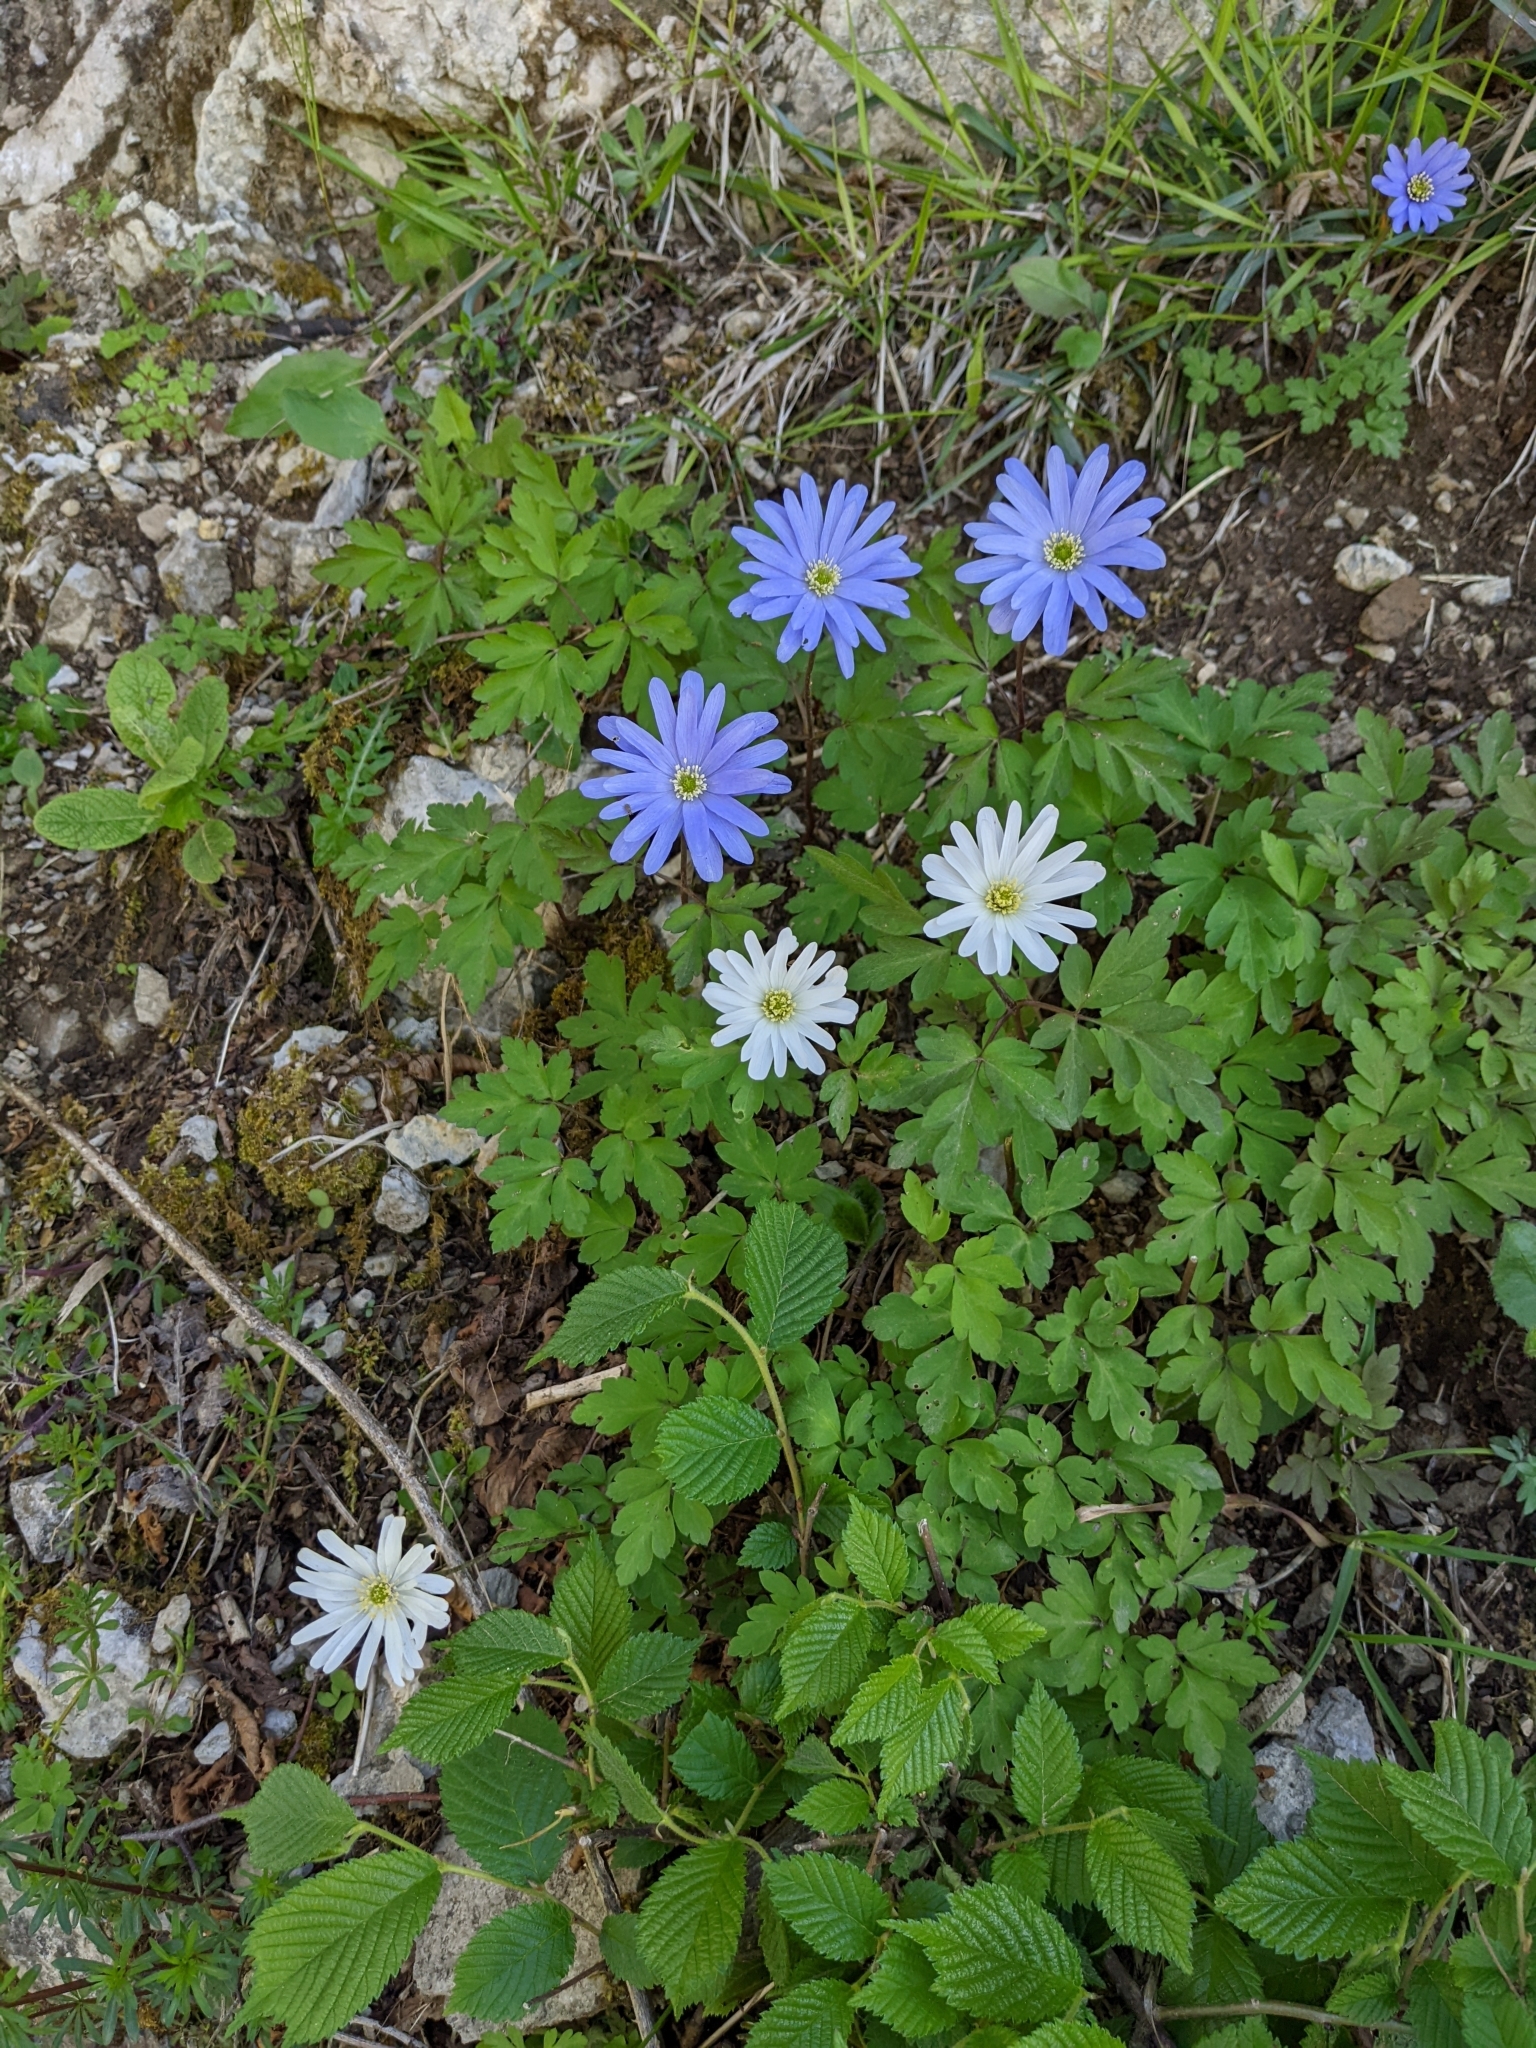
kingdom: Plantae
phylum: Tracheophyta
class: Magnoliopsida
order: Ranunculales
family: Ranunculaceae
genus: Anemone
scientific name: Anemone apennina
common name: Blue anemone
